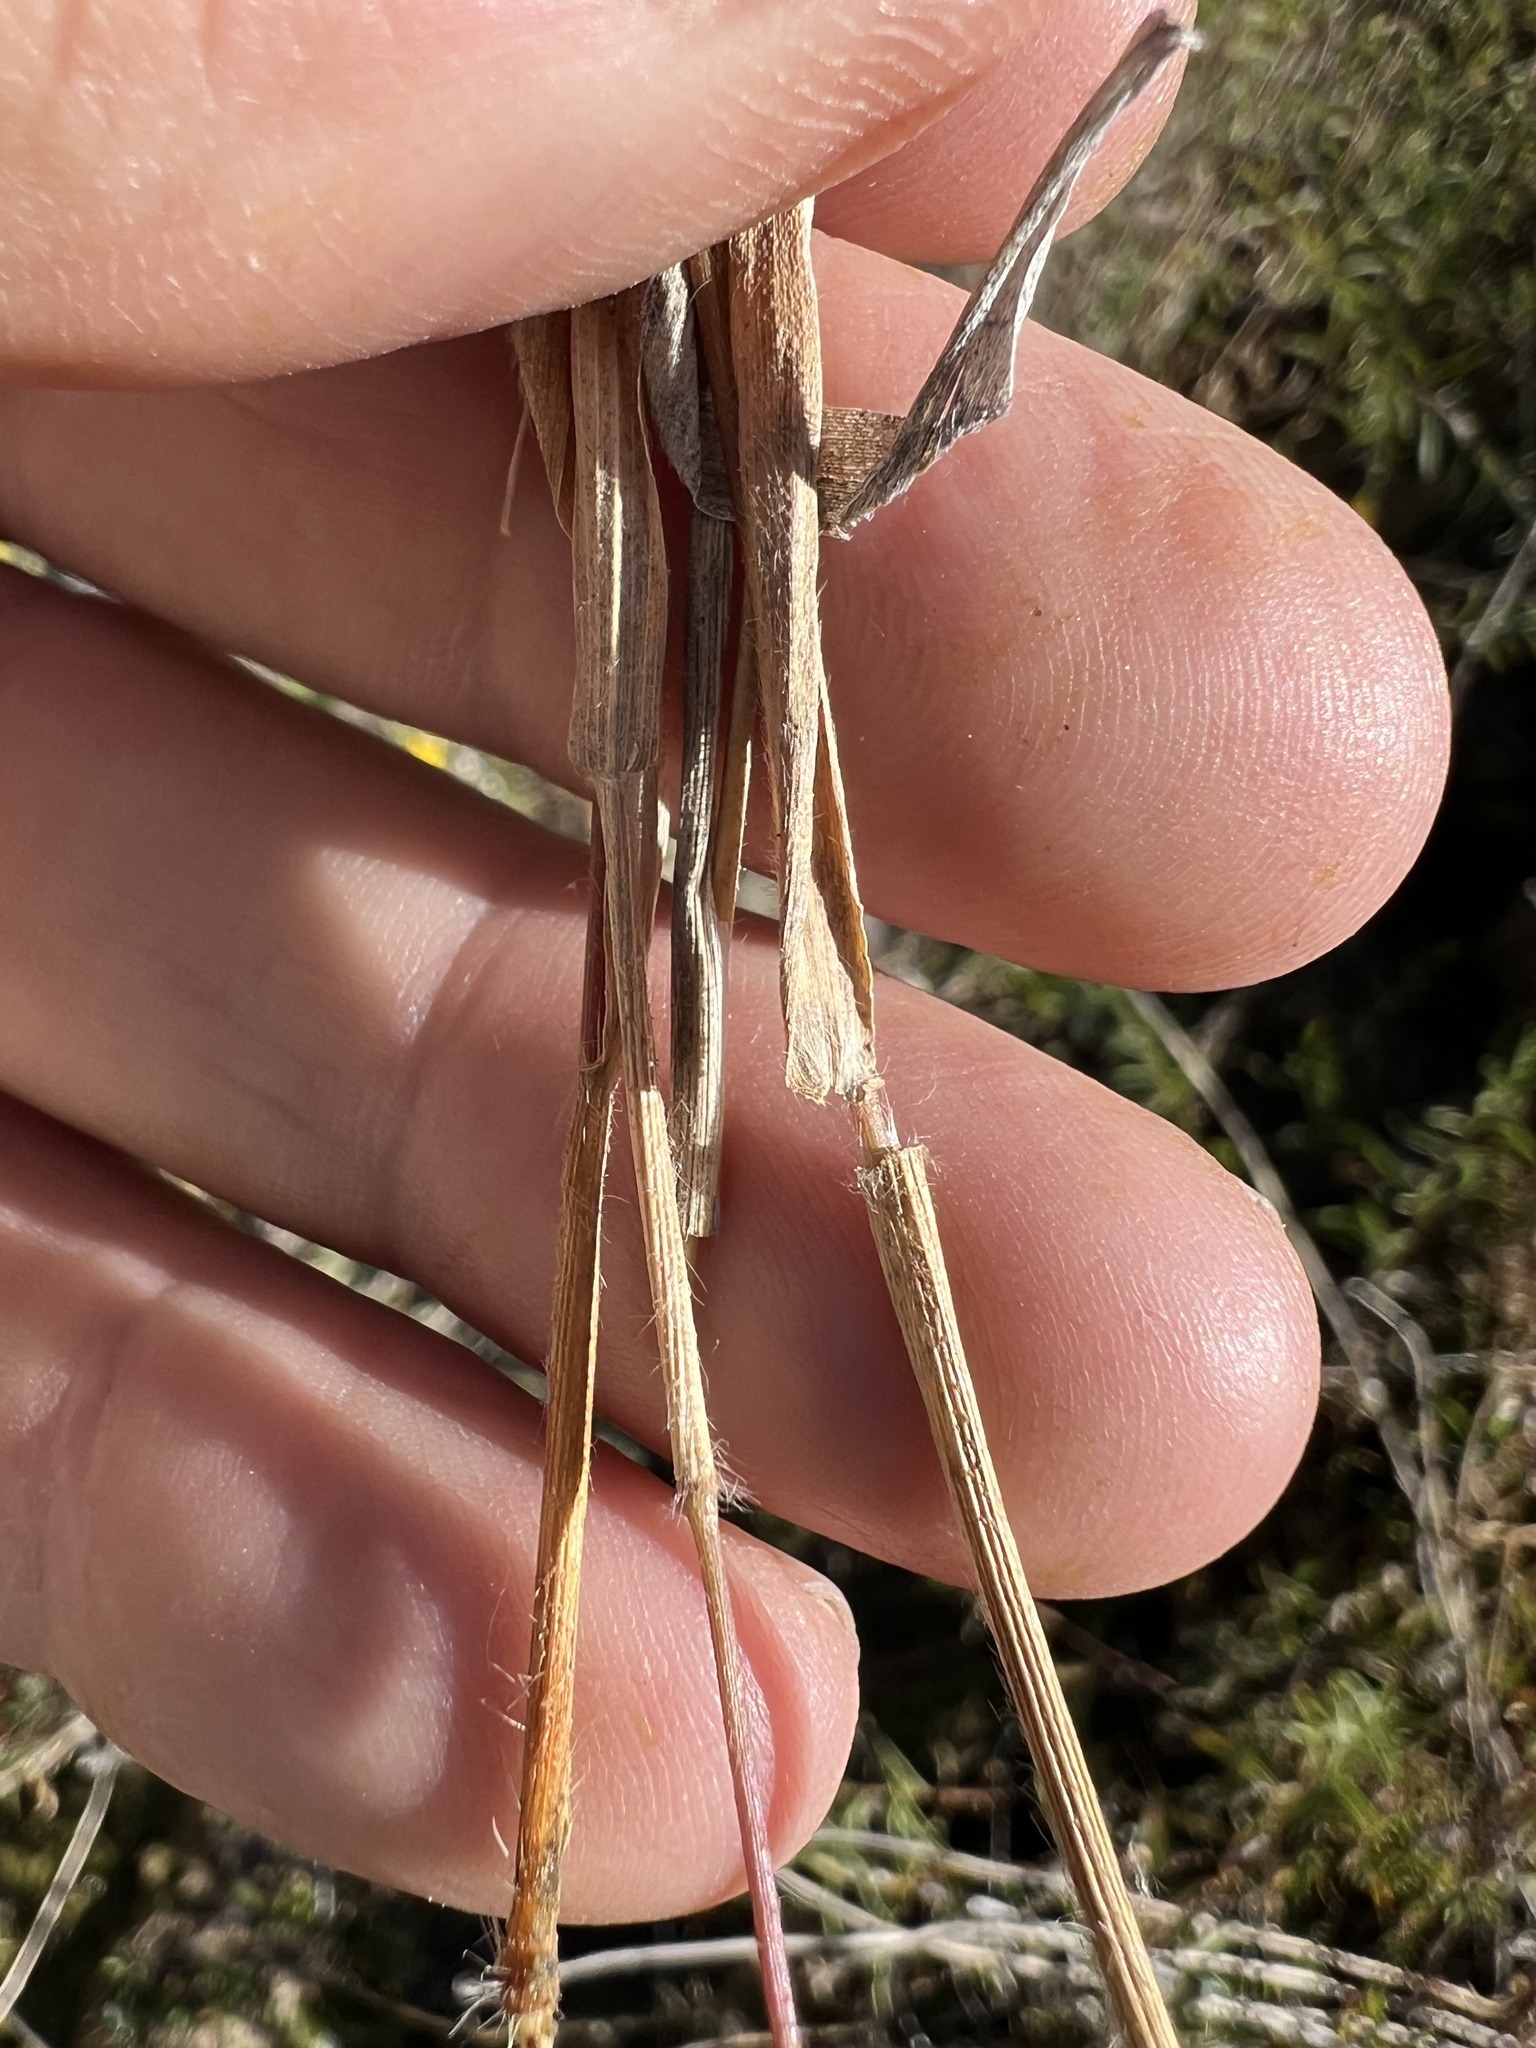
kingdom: Plantae
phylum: Tracheophyta
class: Liliopsida
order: Poales
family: Poaceae
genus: Dichanthelium
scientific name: Dichanthelium lanuginosum
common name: Woolly panicgrass
